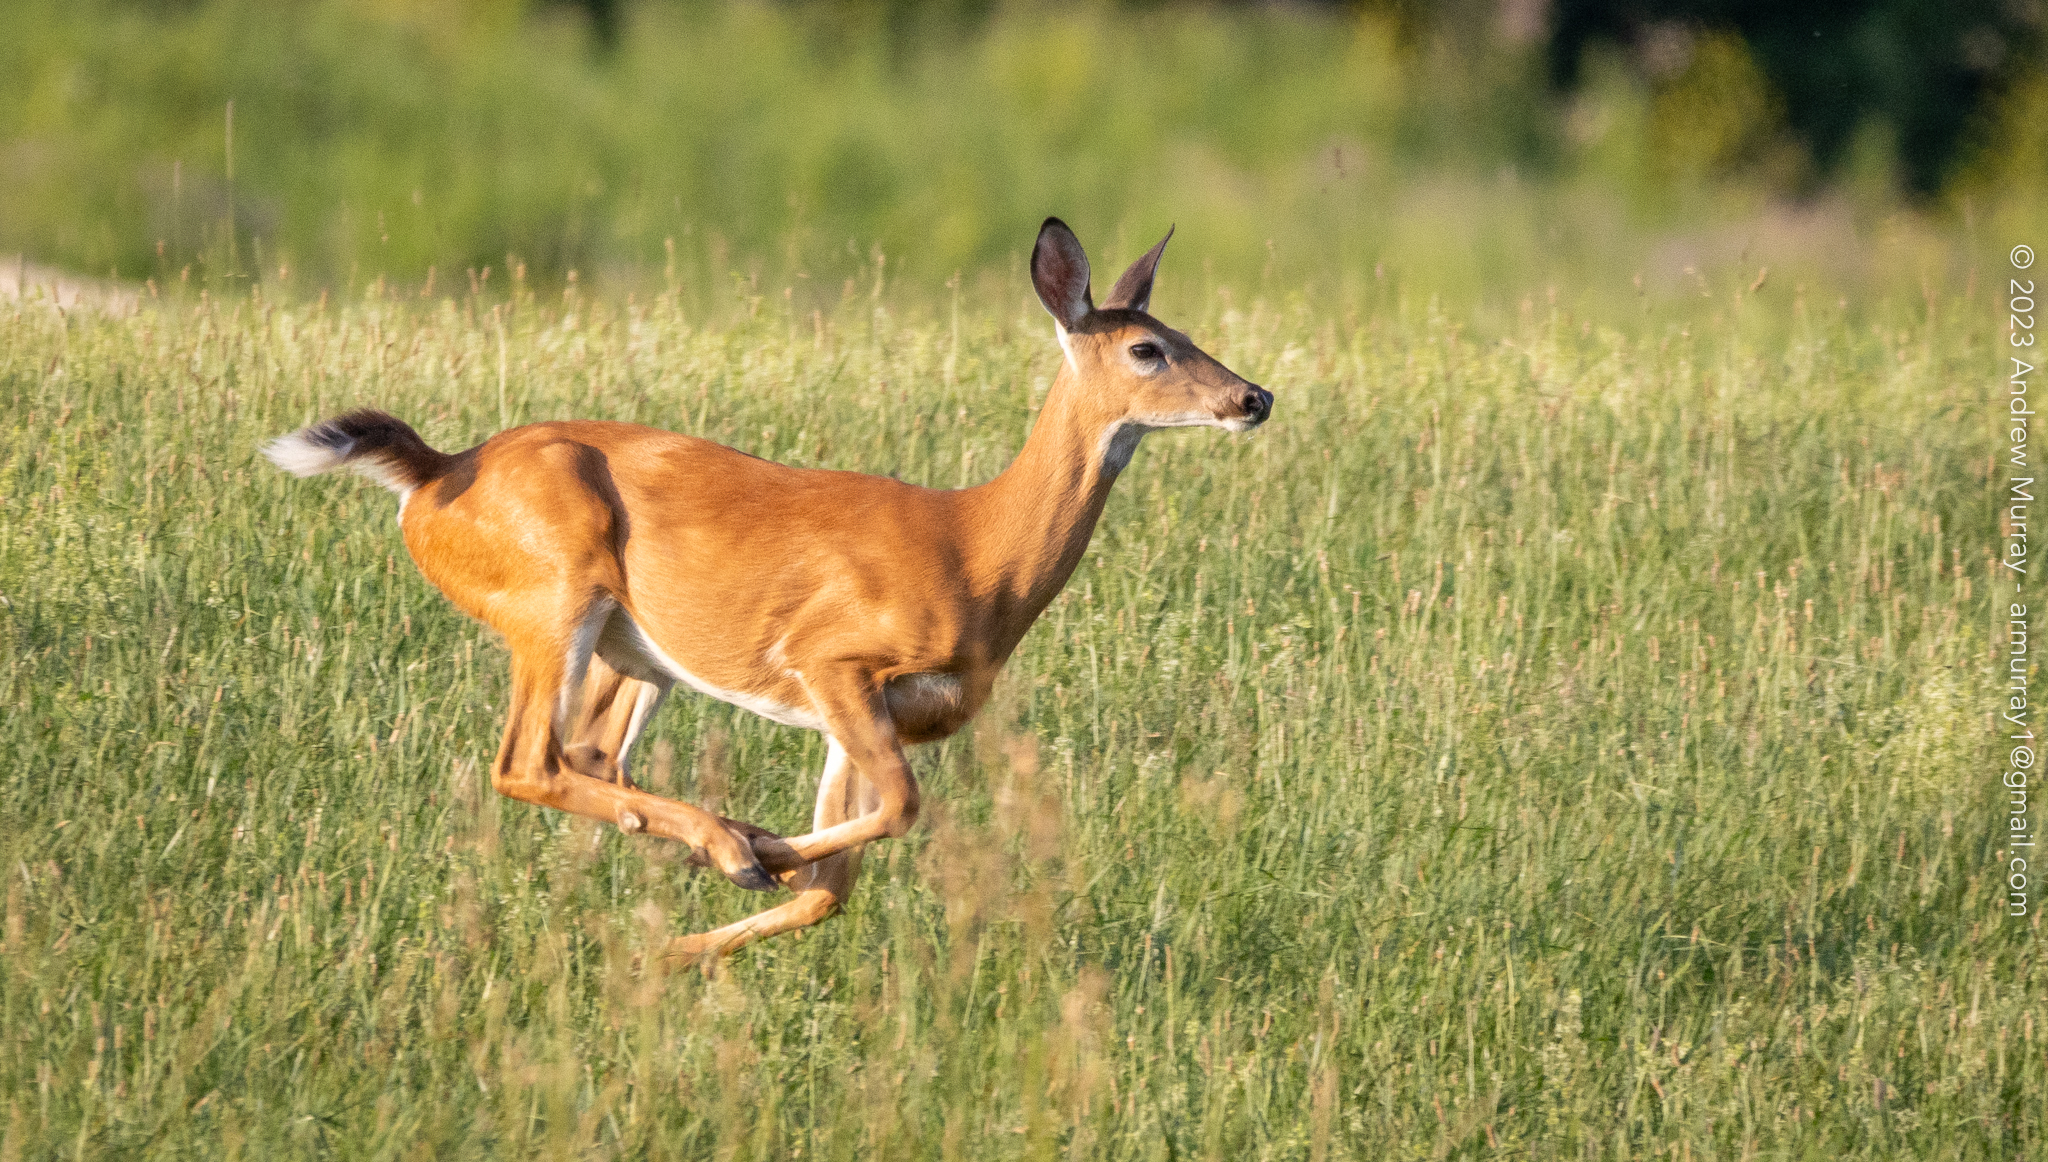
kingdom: Animalia
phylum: Chordata
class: Mammalia
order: Artiodactyla
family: Cervidae
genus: Odocoileus
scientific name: Odocoileus virginianus
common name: White-tailed deer
